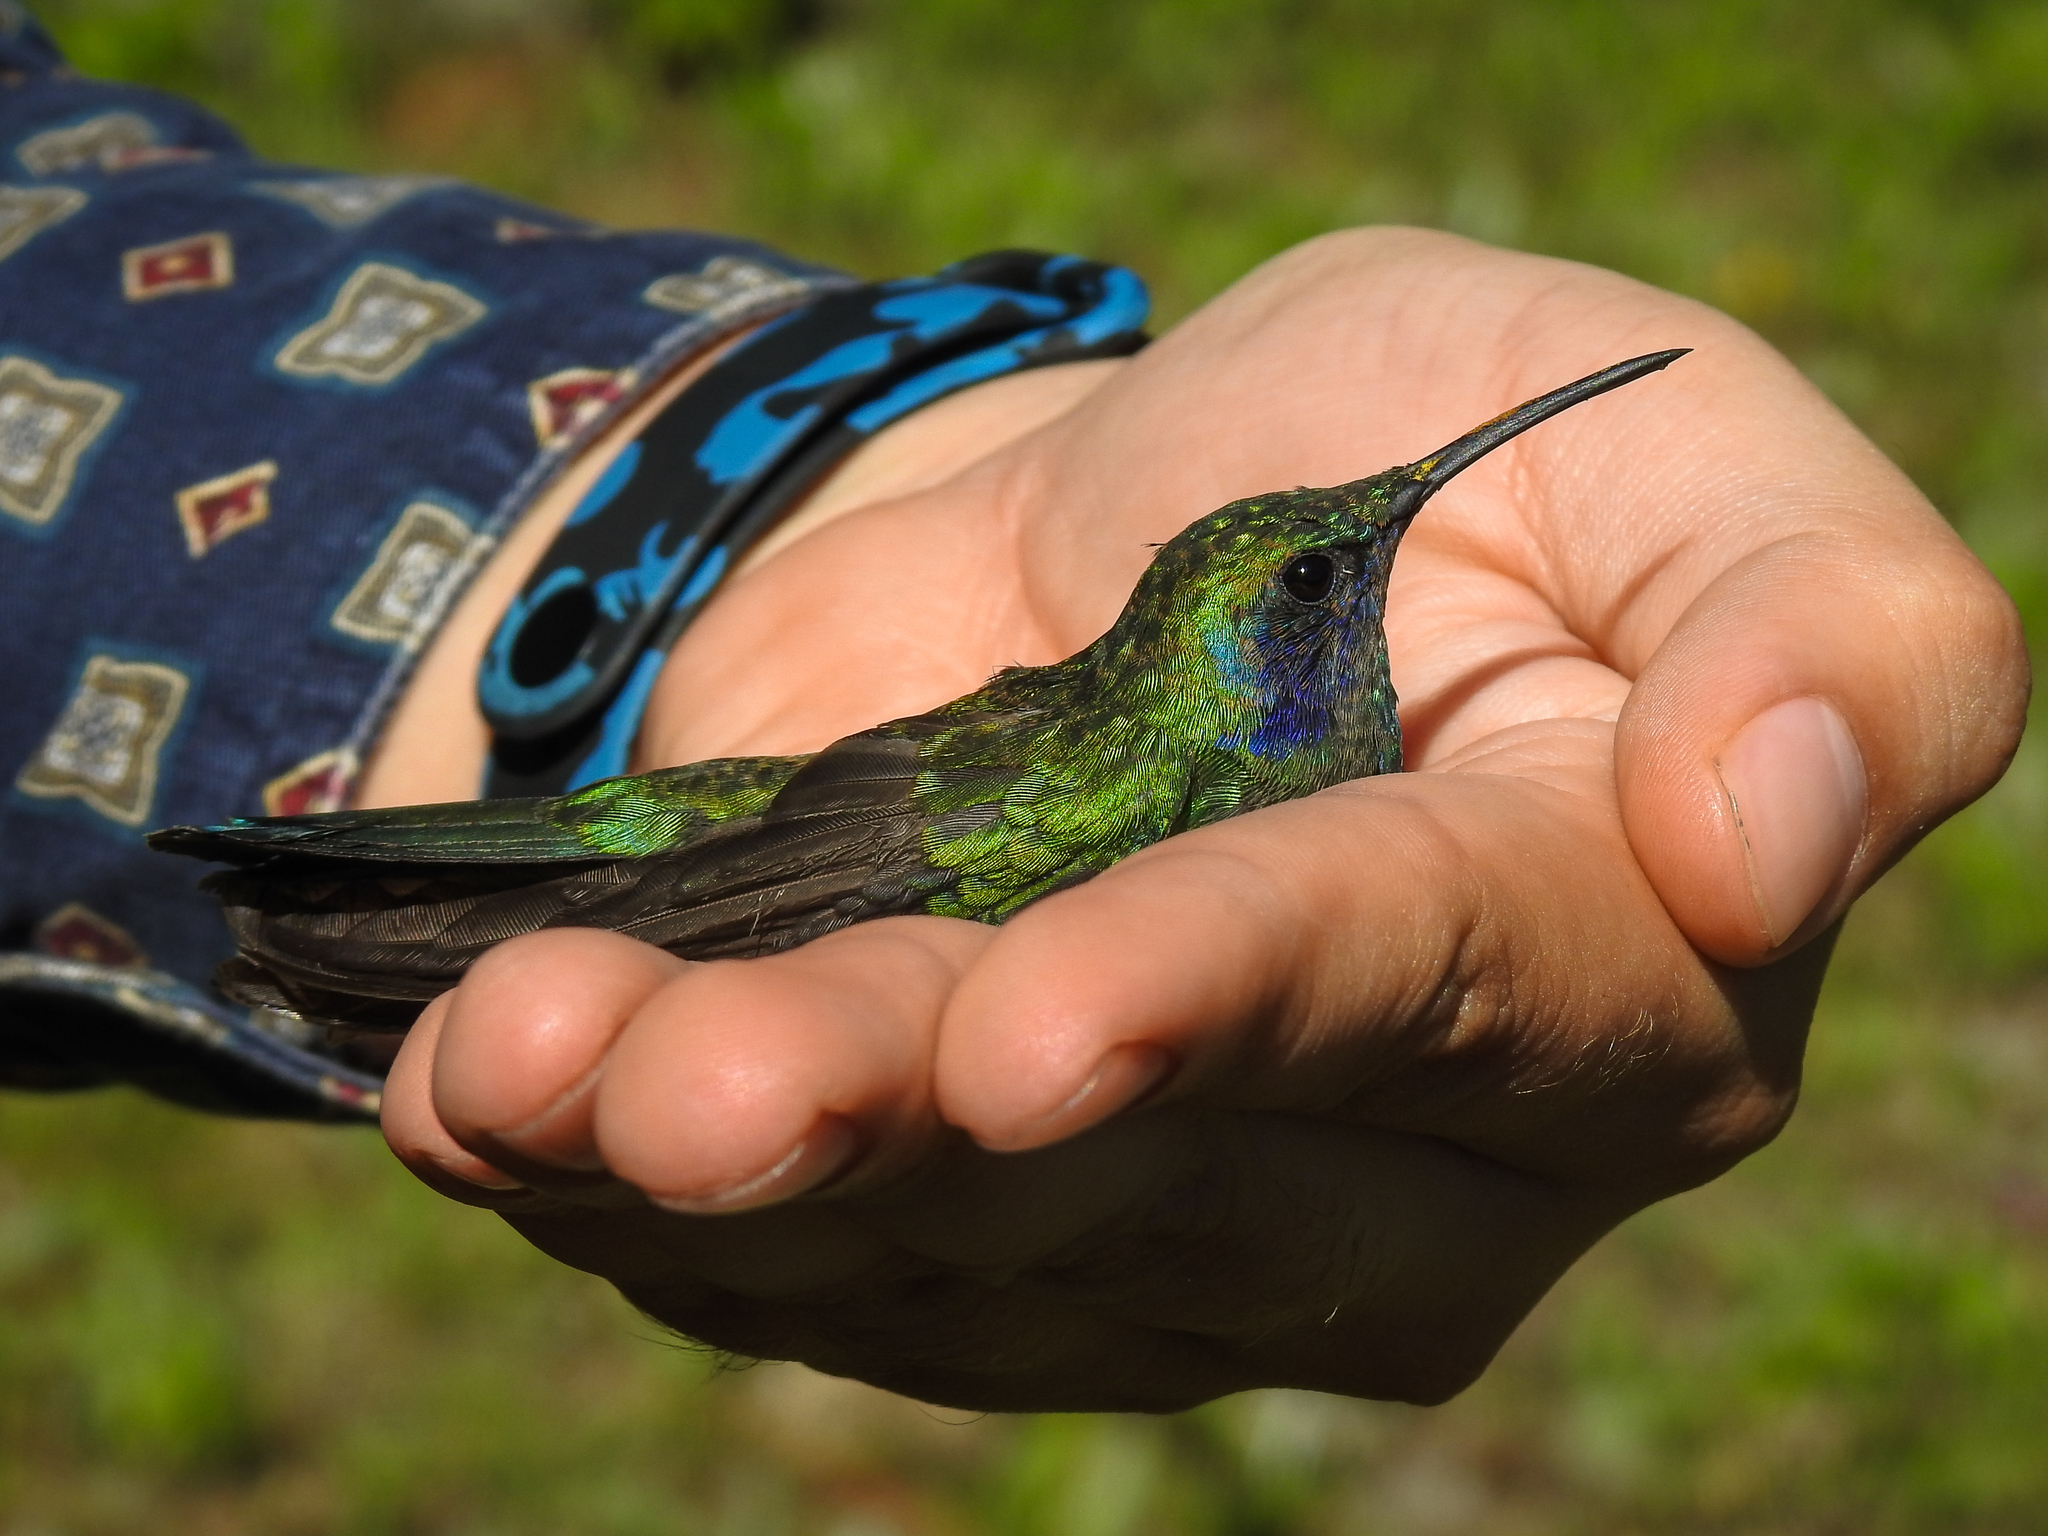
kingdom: Animalia
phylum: Chordata
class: Aves
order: Apodiformes
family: Trochilidae
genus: Colibri
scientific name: Colibri thalassinus
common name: Green violetear
